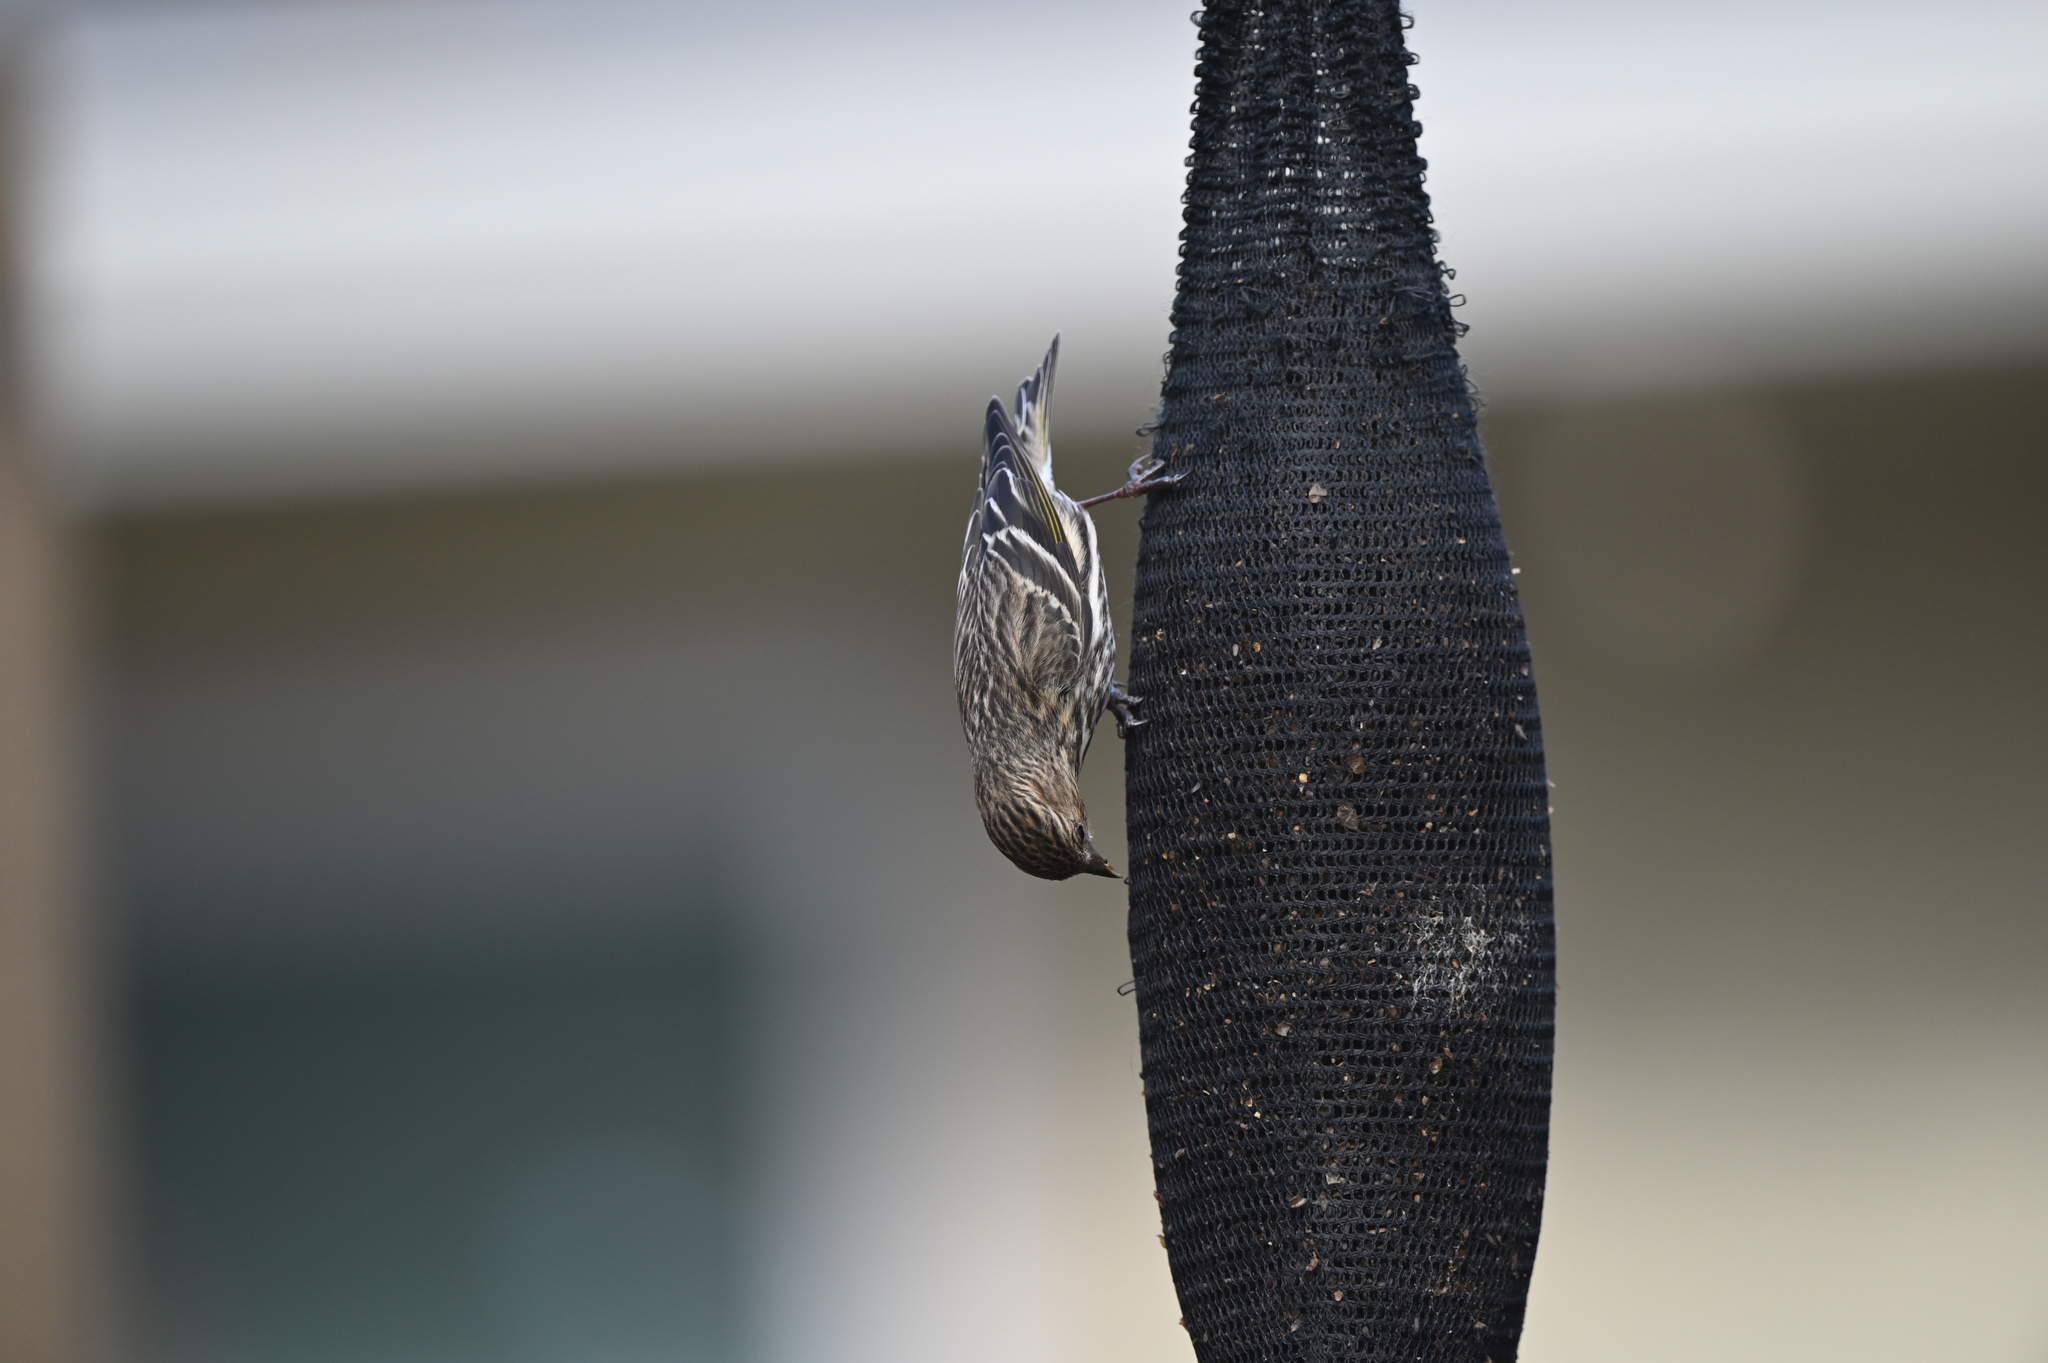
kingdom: Animalia
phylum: Chordata
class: Aves
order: Passeriformes
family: Fringillidae
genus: Spinus
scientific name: Spinus pinus
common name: Pine siskin
